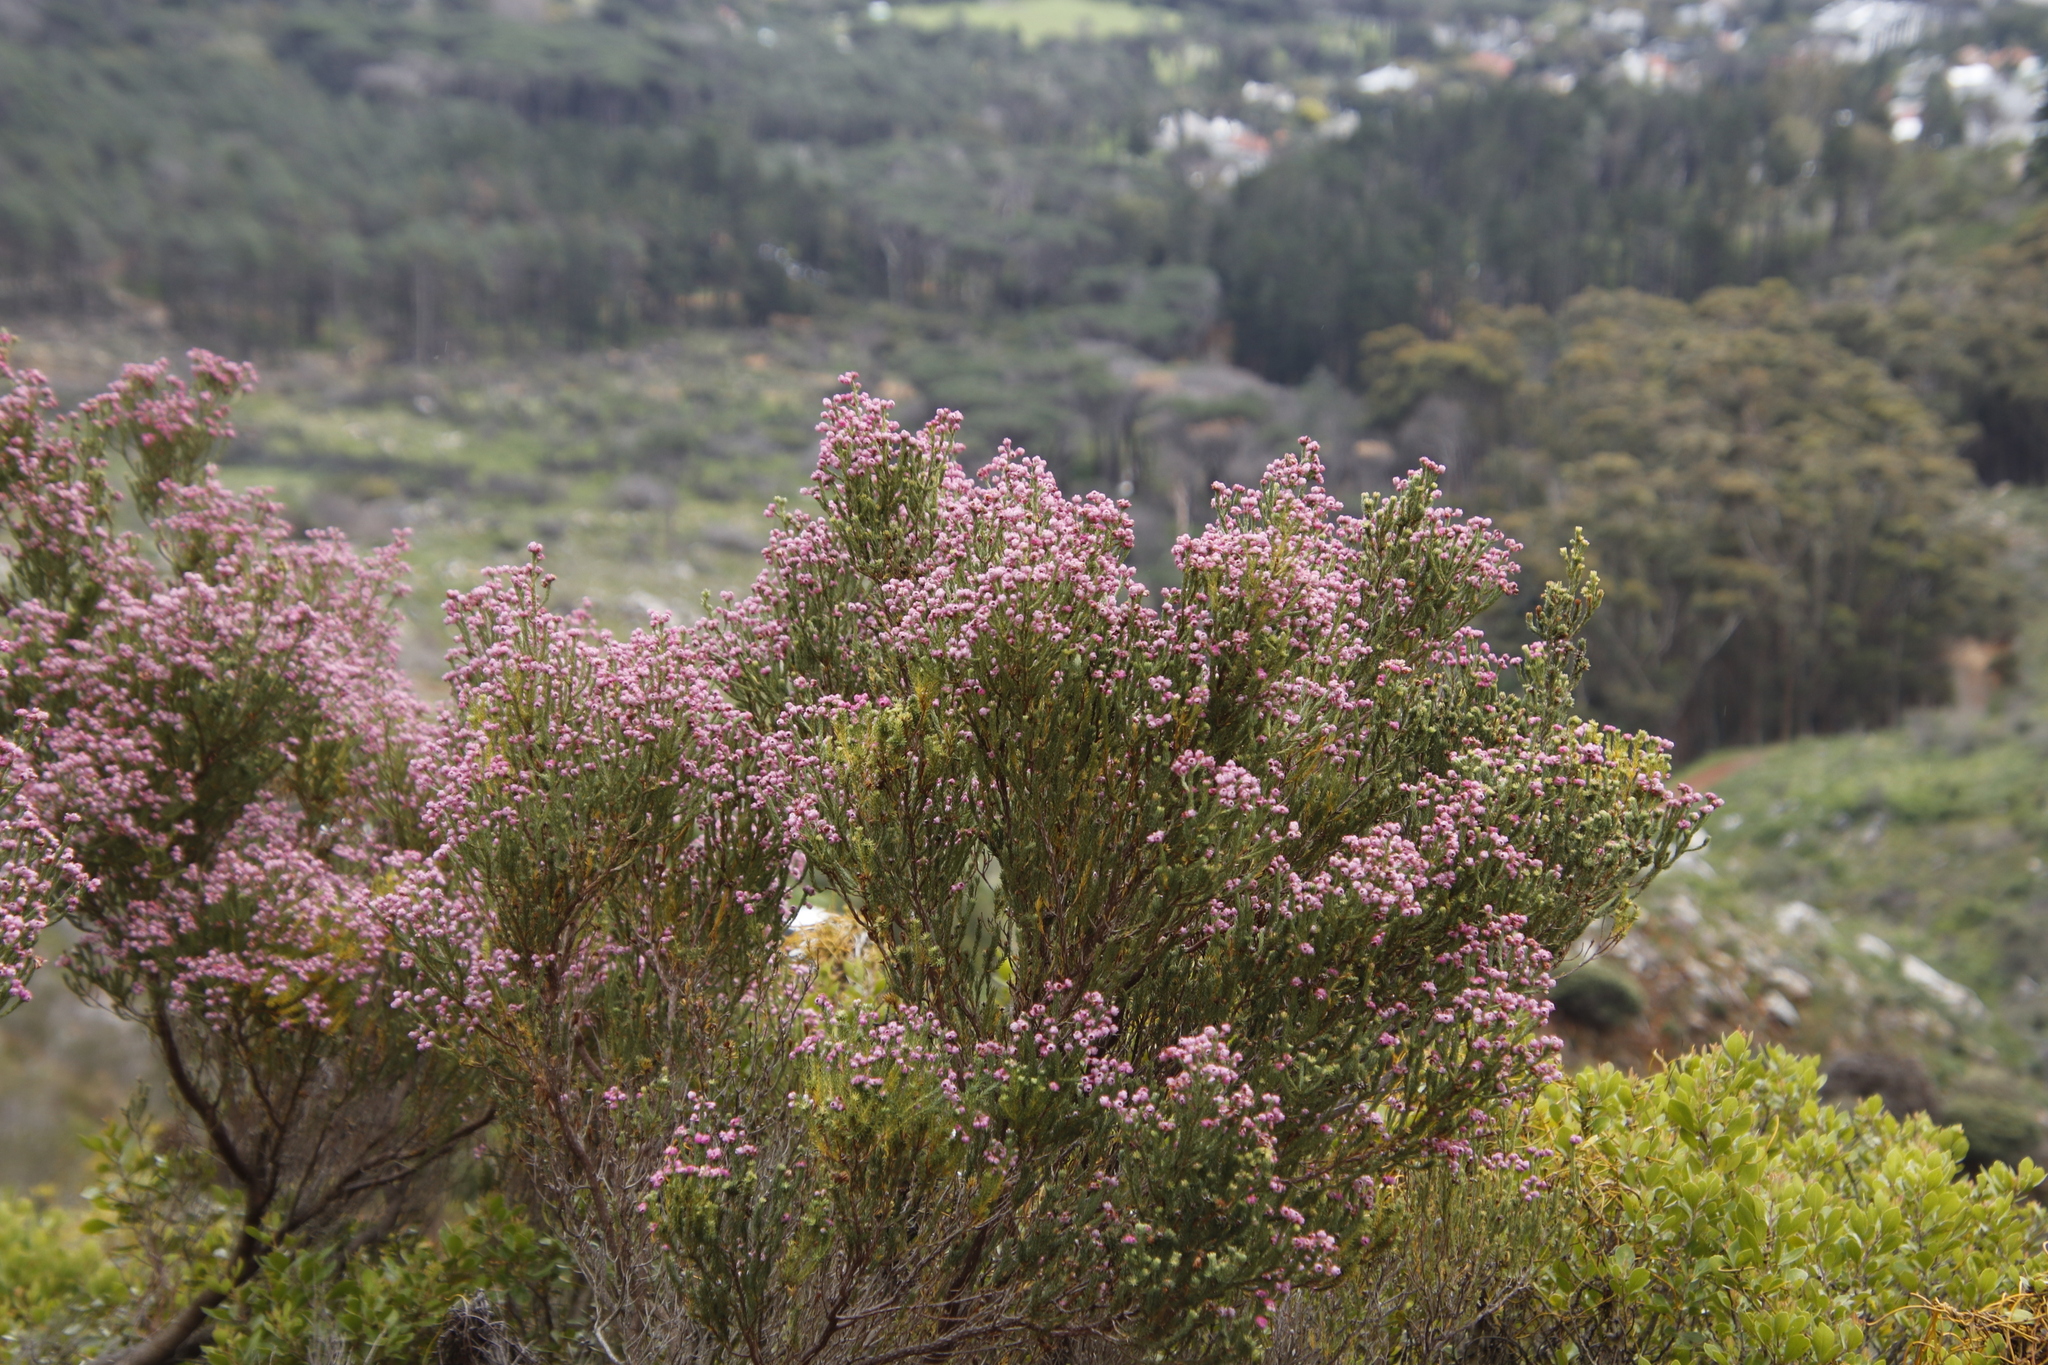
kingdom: Plantae
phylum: Tracheophyta
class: Magnoliopsida
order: Ericales
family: Ericaceae
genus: Erica
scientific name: Erica baccans
